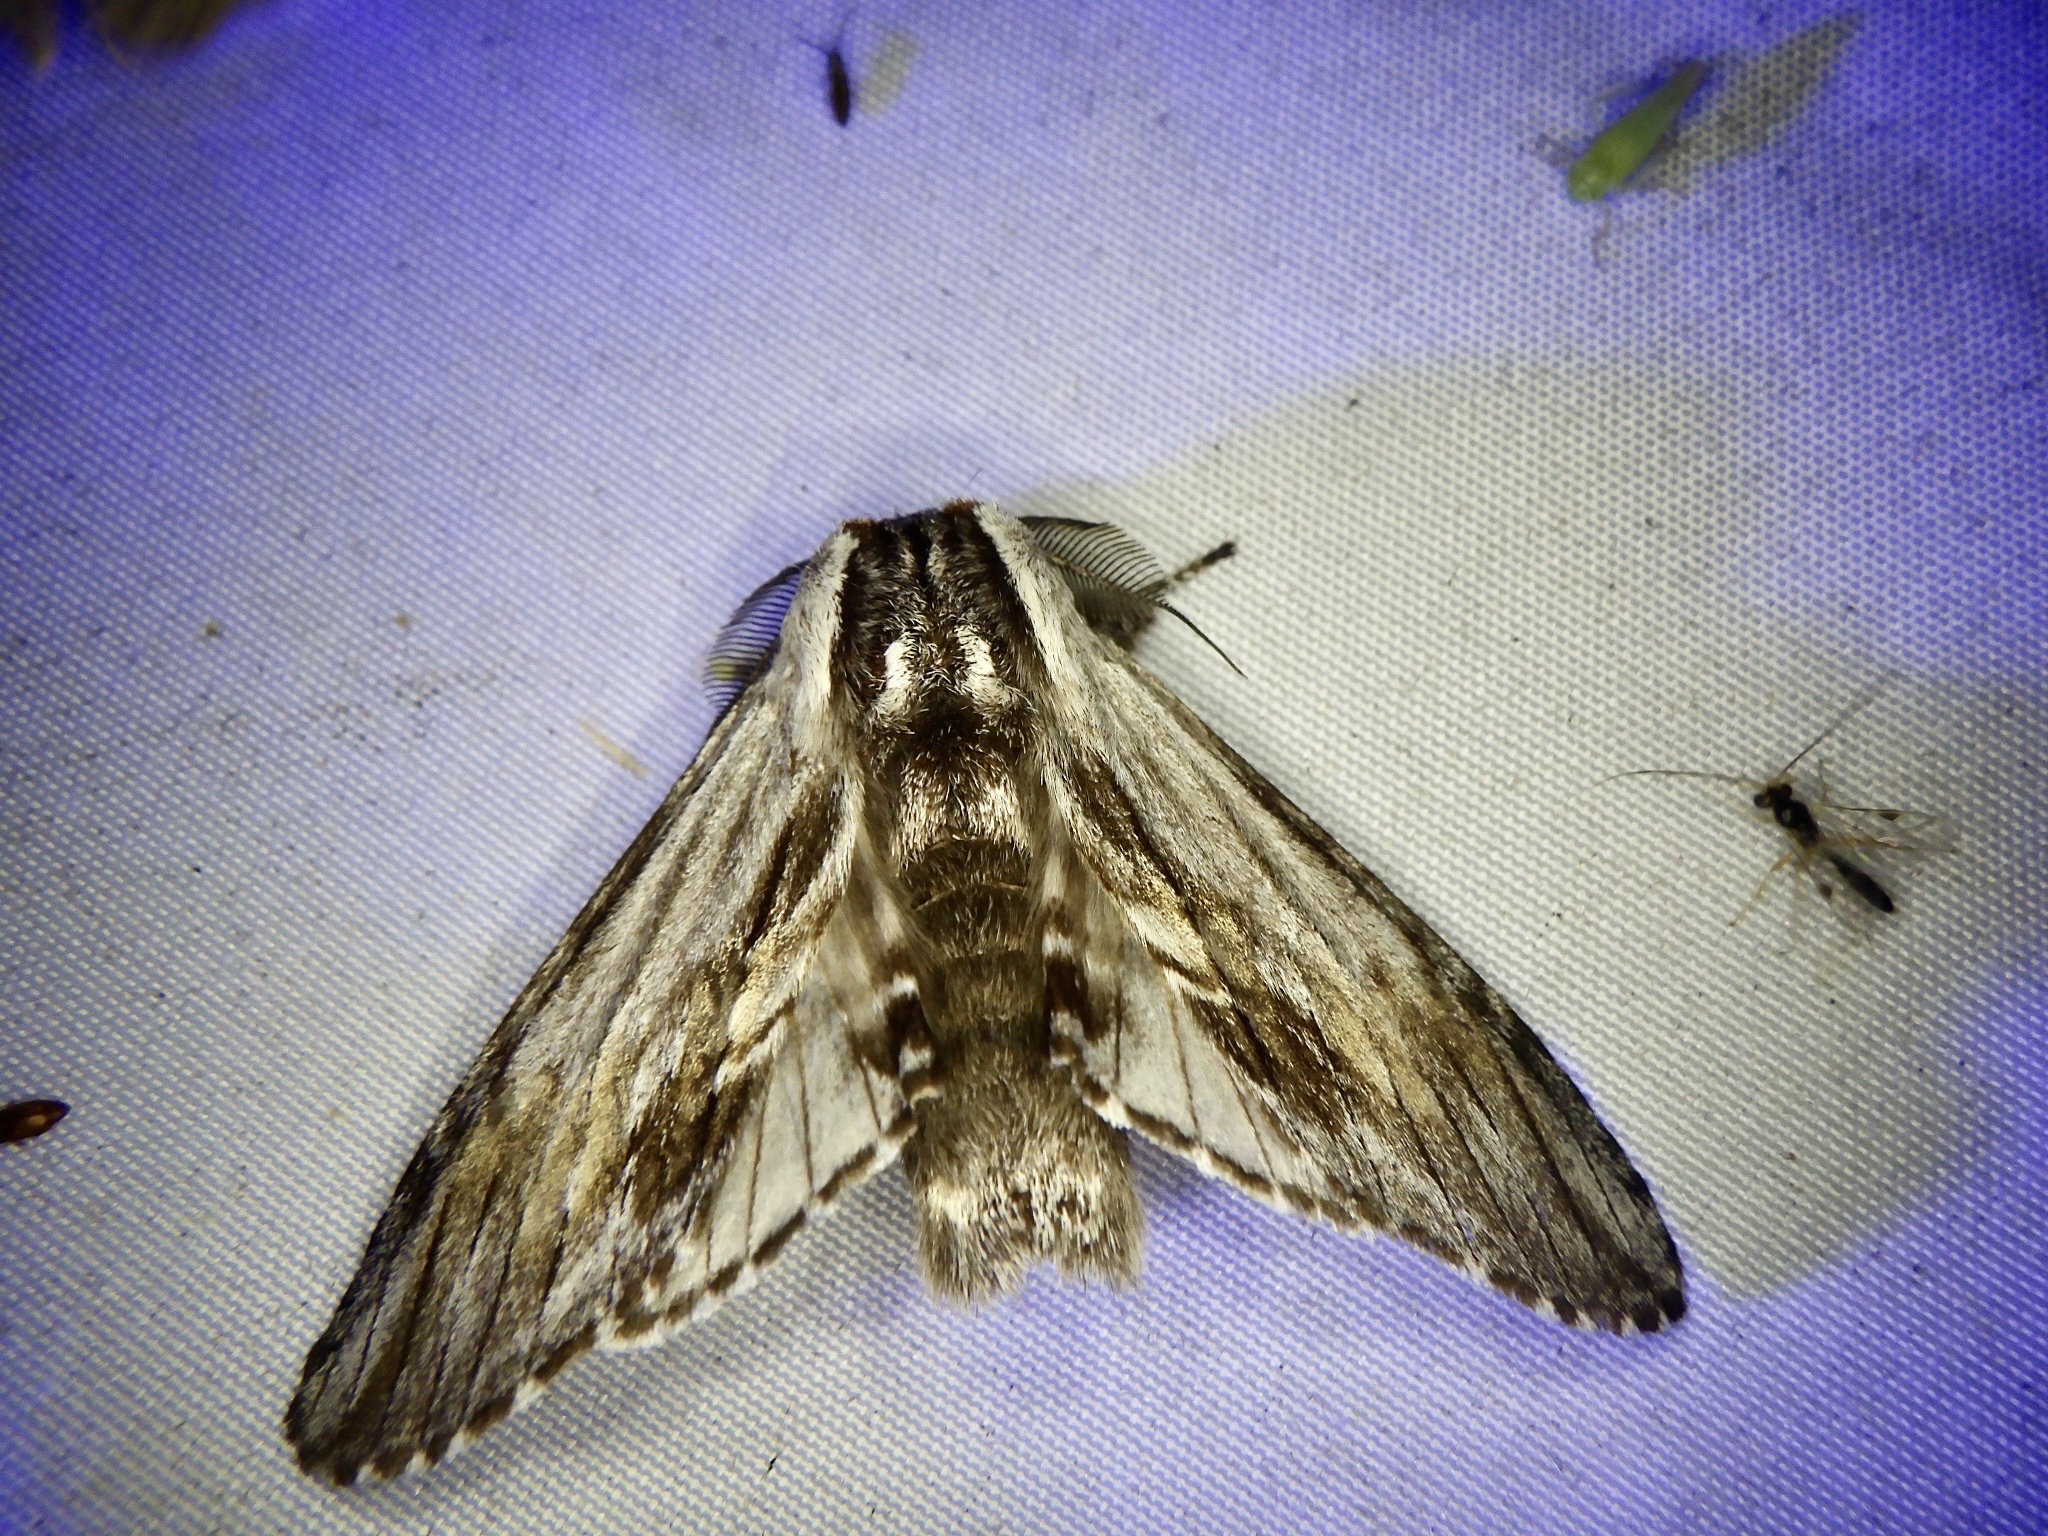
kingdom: Animalia
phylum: Arthropoda
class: Insecta
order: Lepidoptera
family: Notodontidae
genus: Harpyia
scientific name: Harpyia umbrosa
